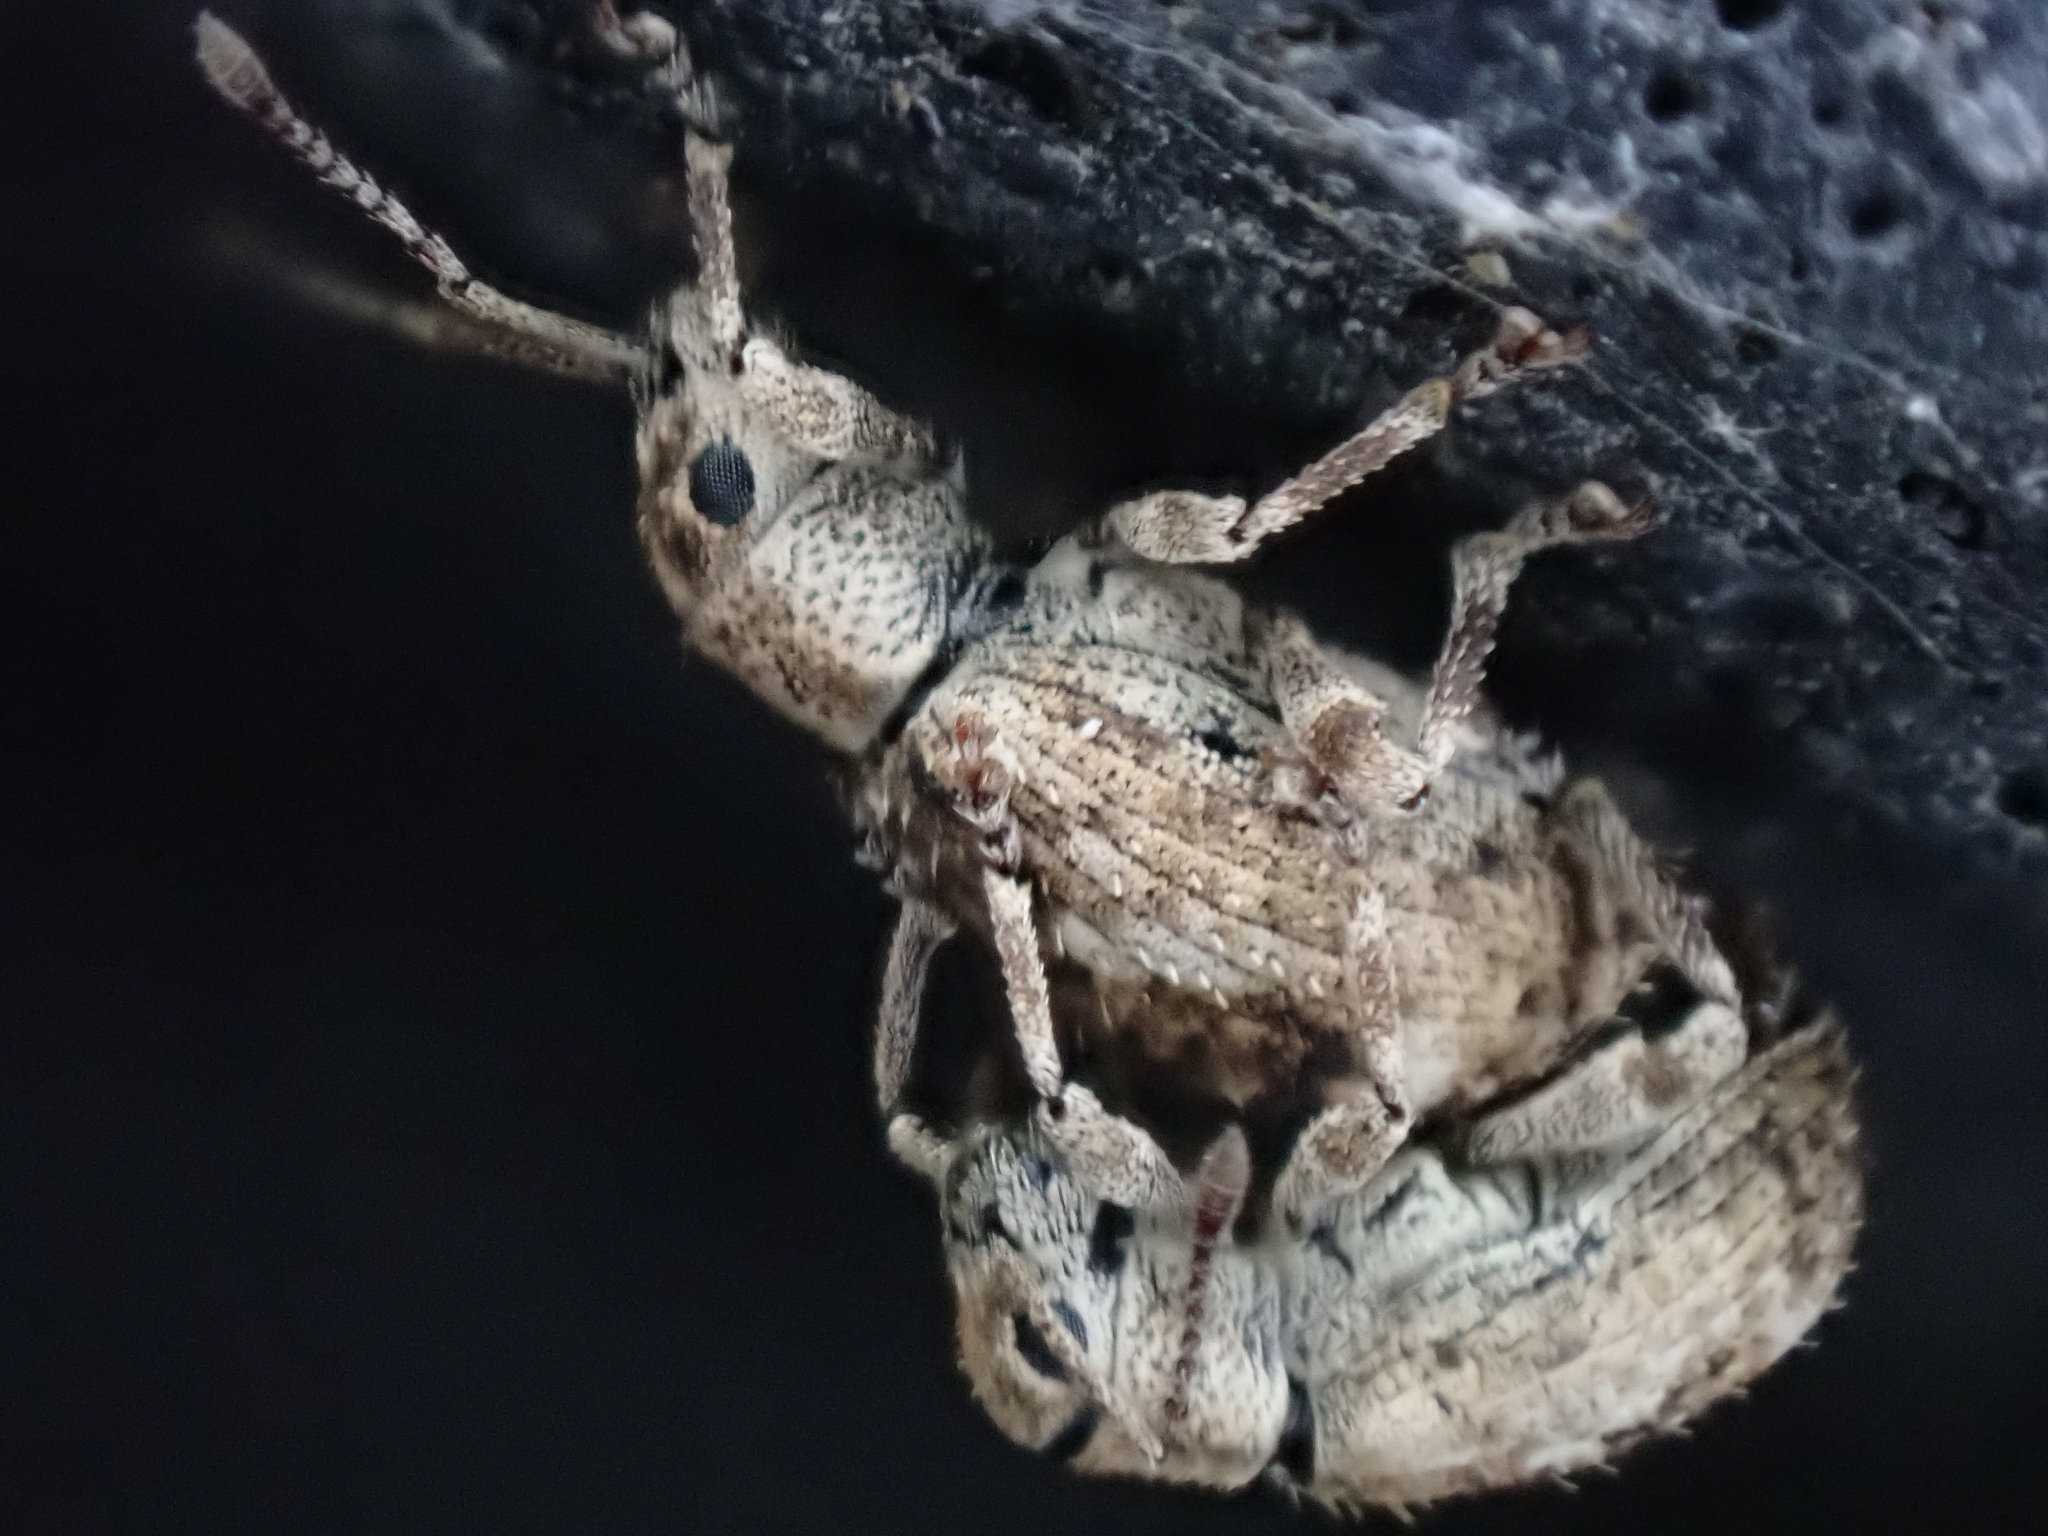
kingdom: Animalia
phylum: Arthropoda
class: Insecta
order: Coleoptera
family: Curculionidae
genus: Pseudoedophrys
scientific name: Pseudoedophrys hilleri
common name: Weevil
